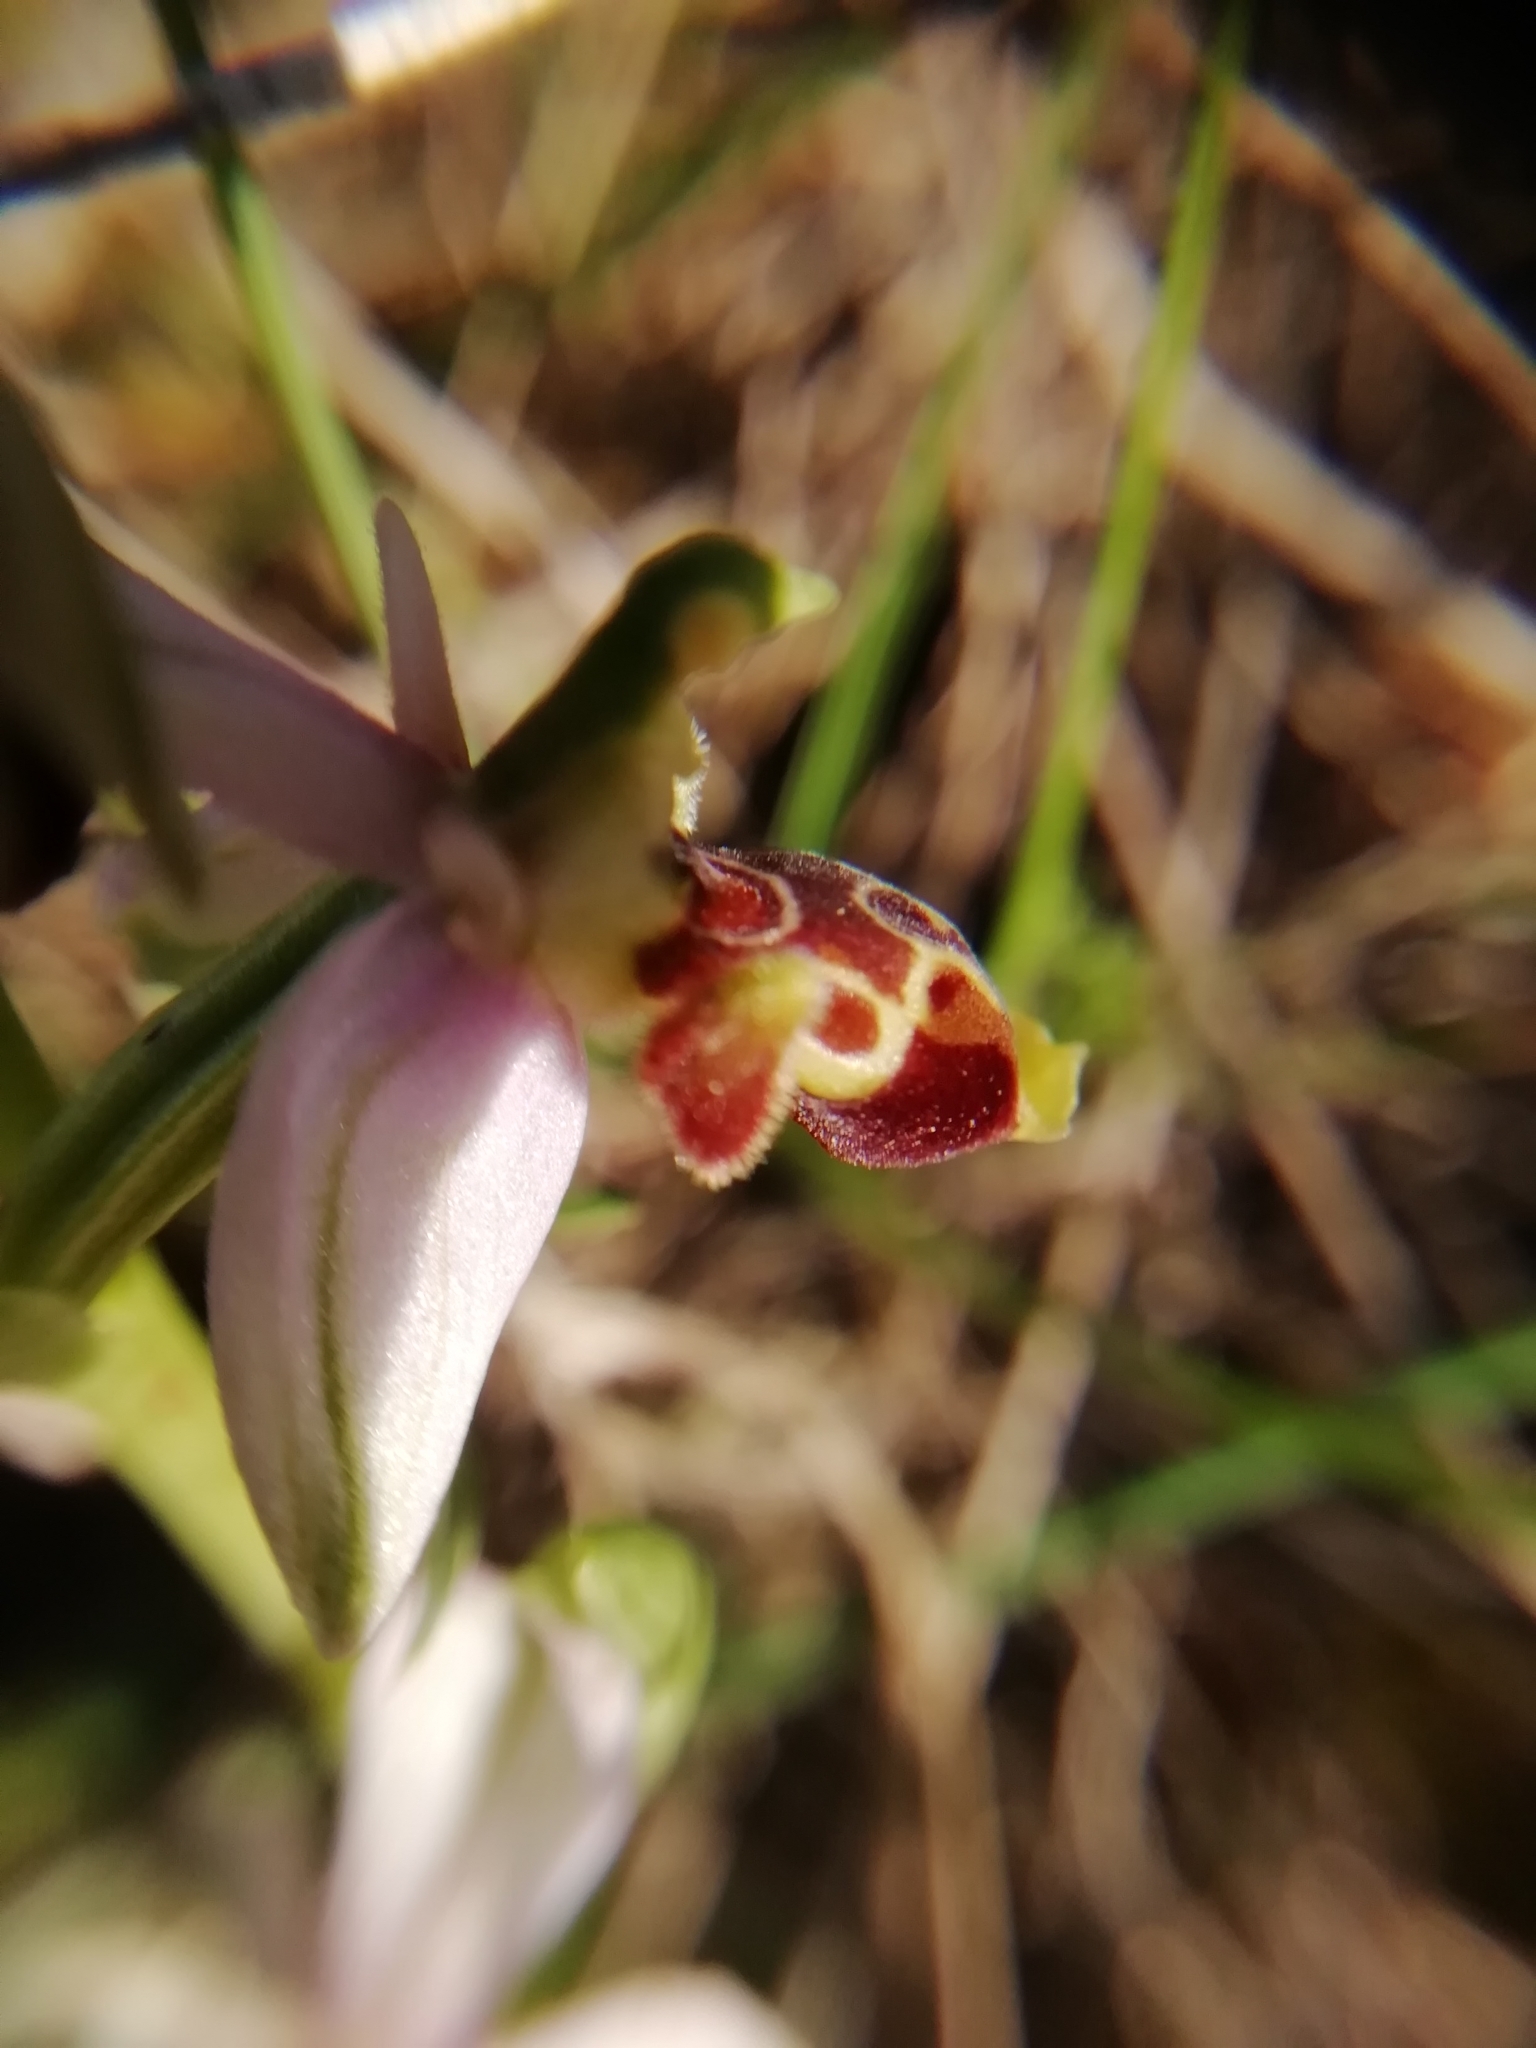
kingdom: Plantae
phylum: Tracheophyta
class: Liliopsida
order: Asparagales
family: Orchidaceae
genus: Ophrys
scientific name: Ophrys scolopax
